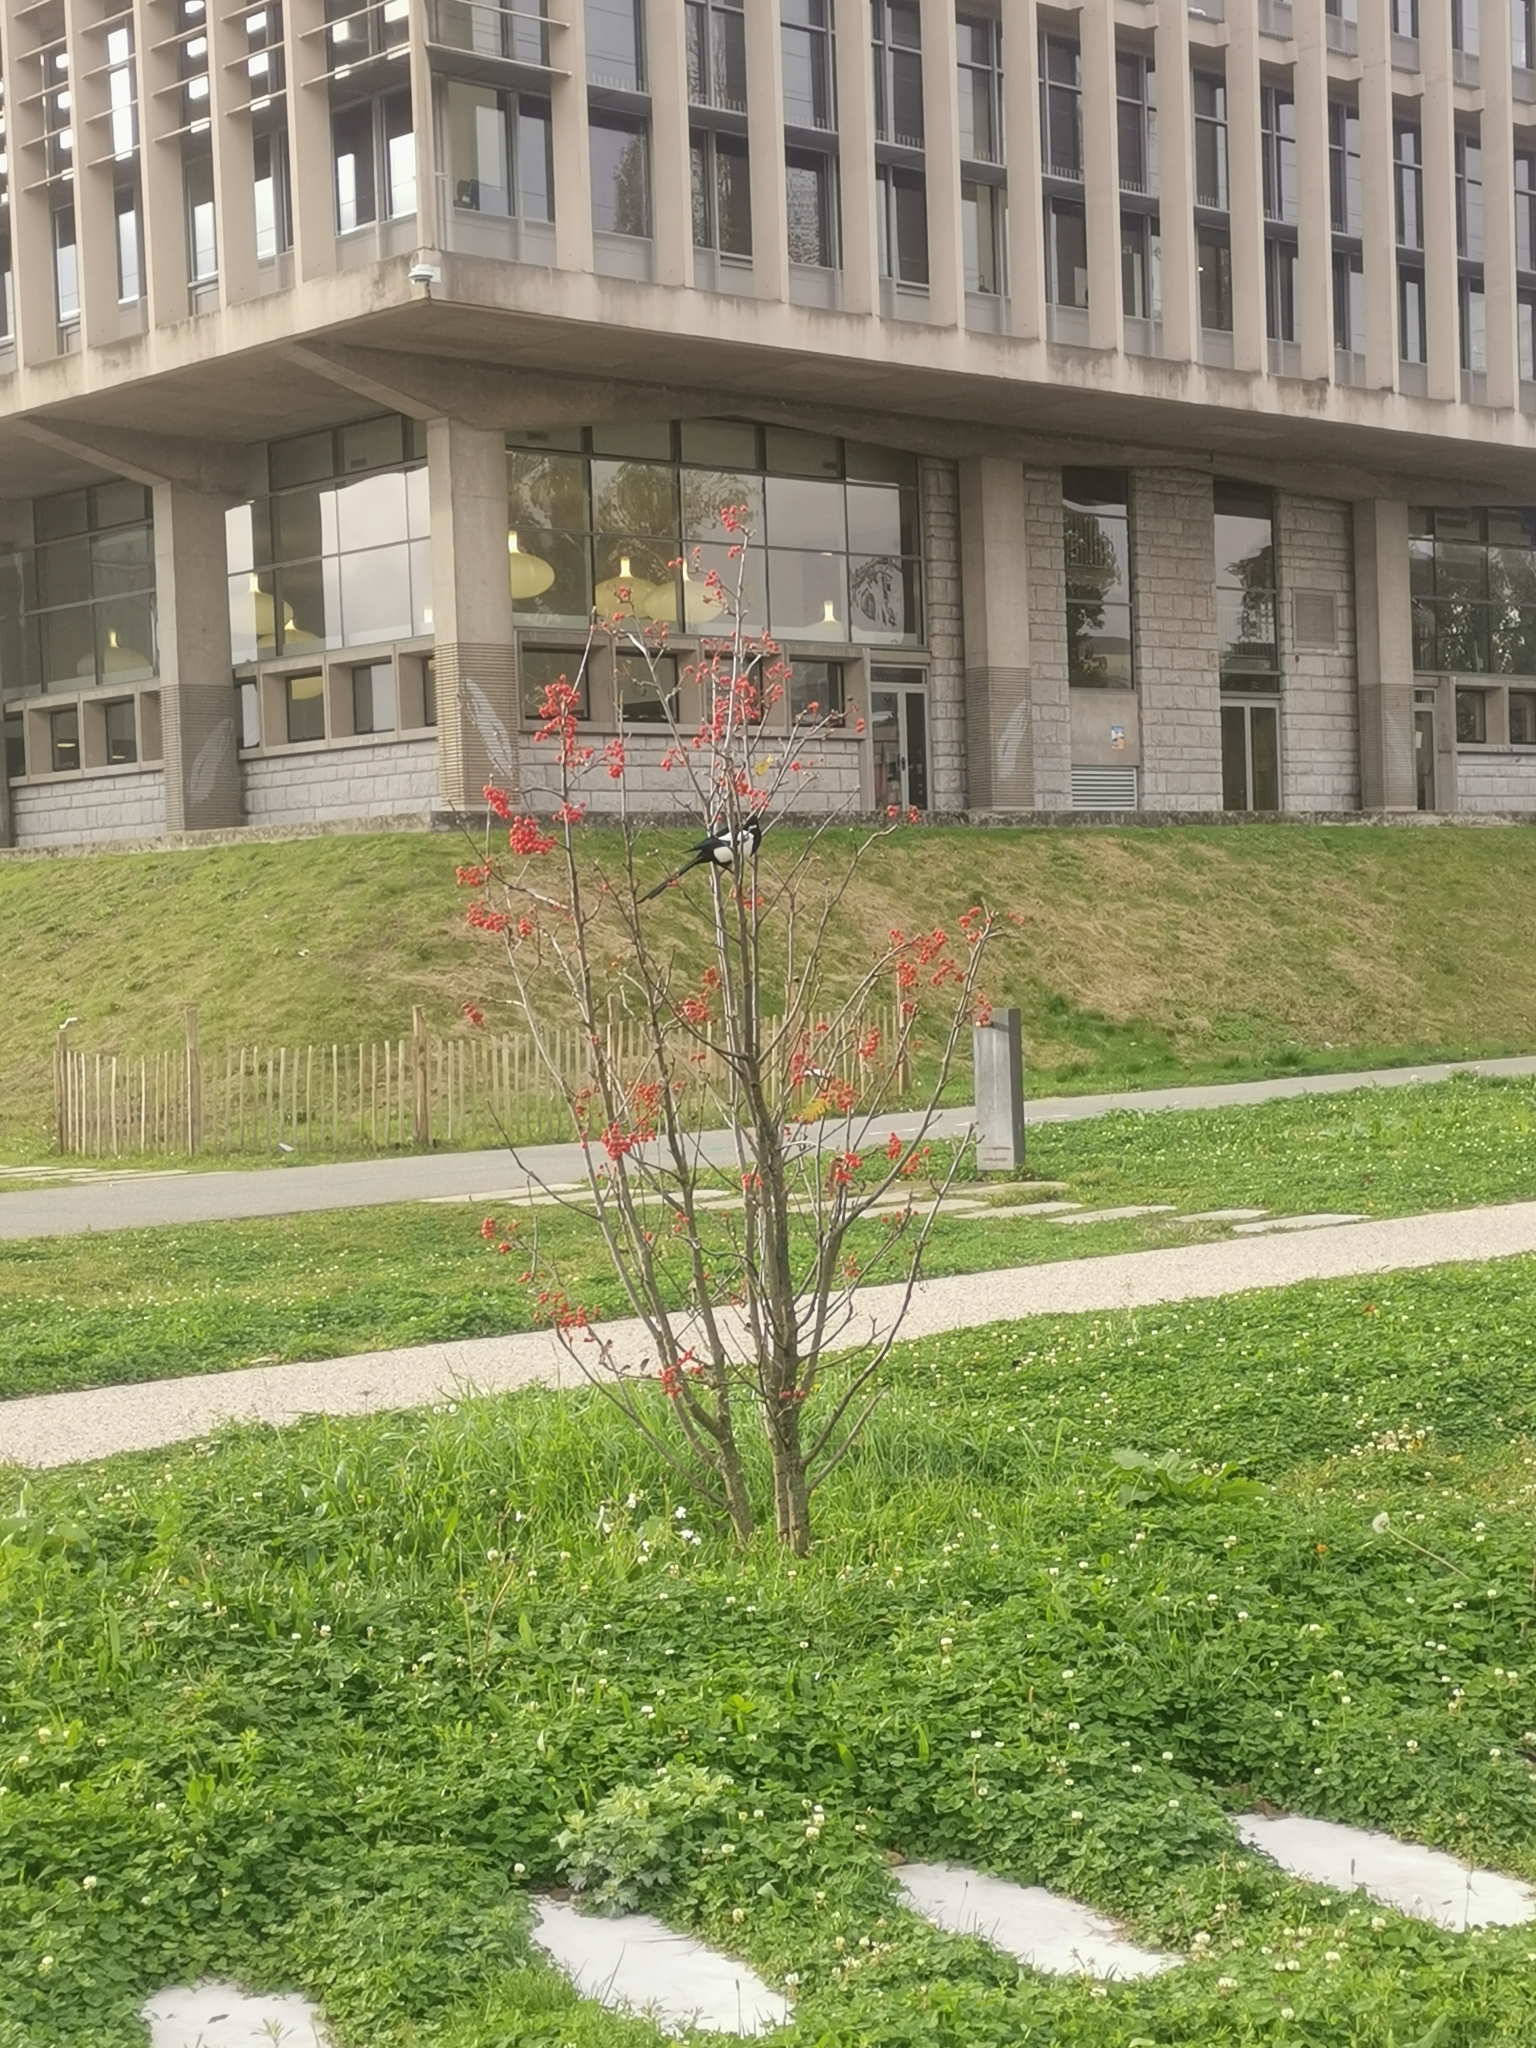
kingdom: Animalia
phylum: Chordata
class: Aves
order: Passeriformes
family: Corvidae
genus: Pica
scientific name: Pica pica
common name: Eurasian magpie
